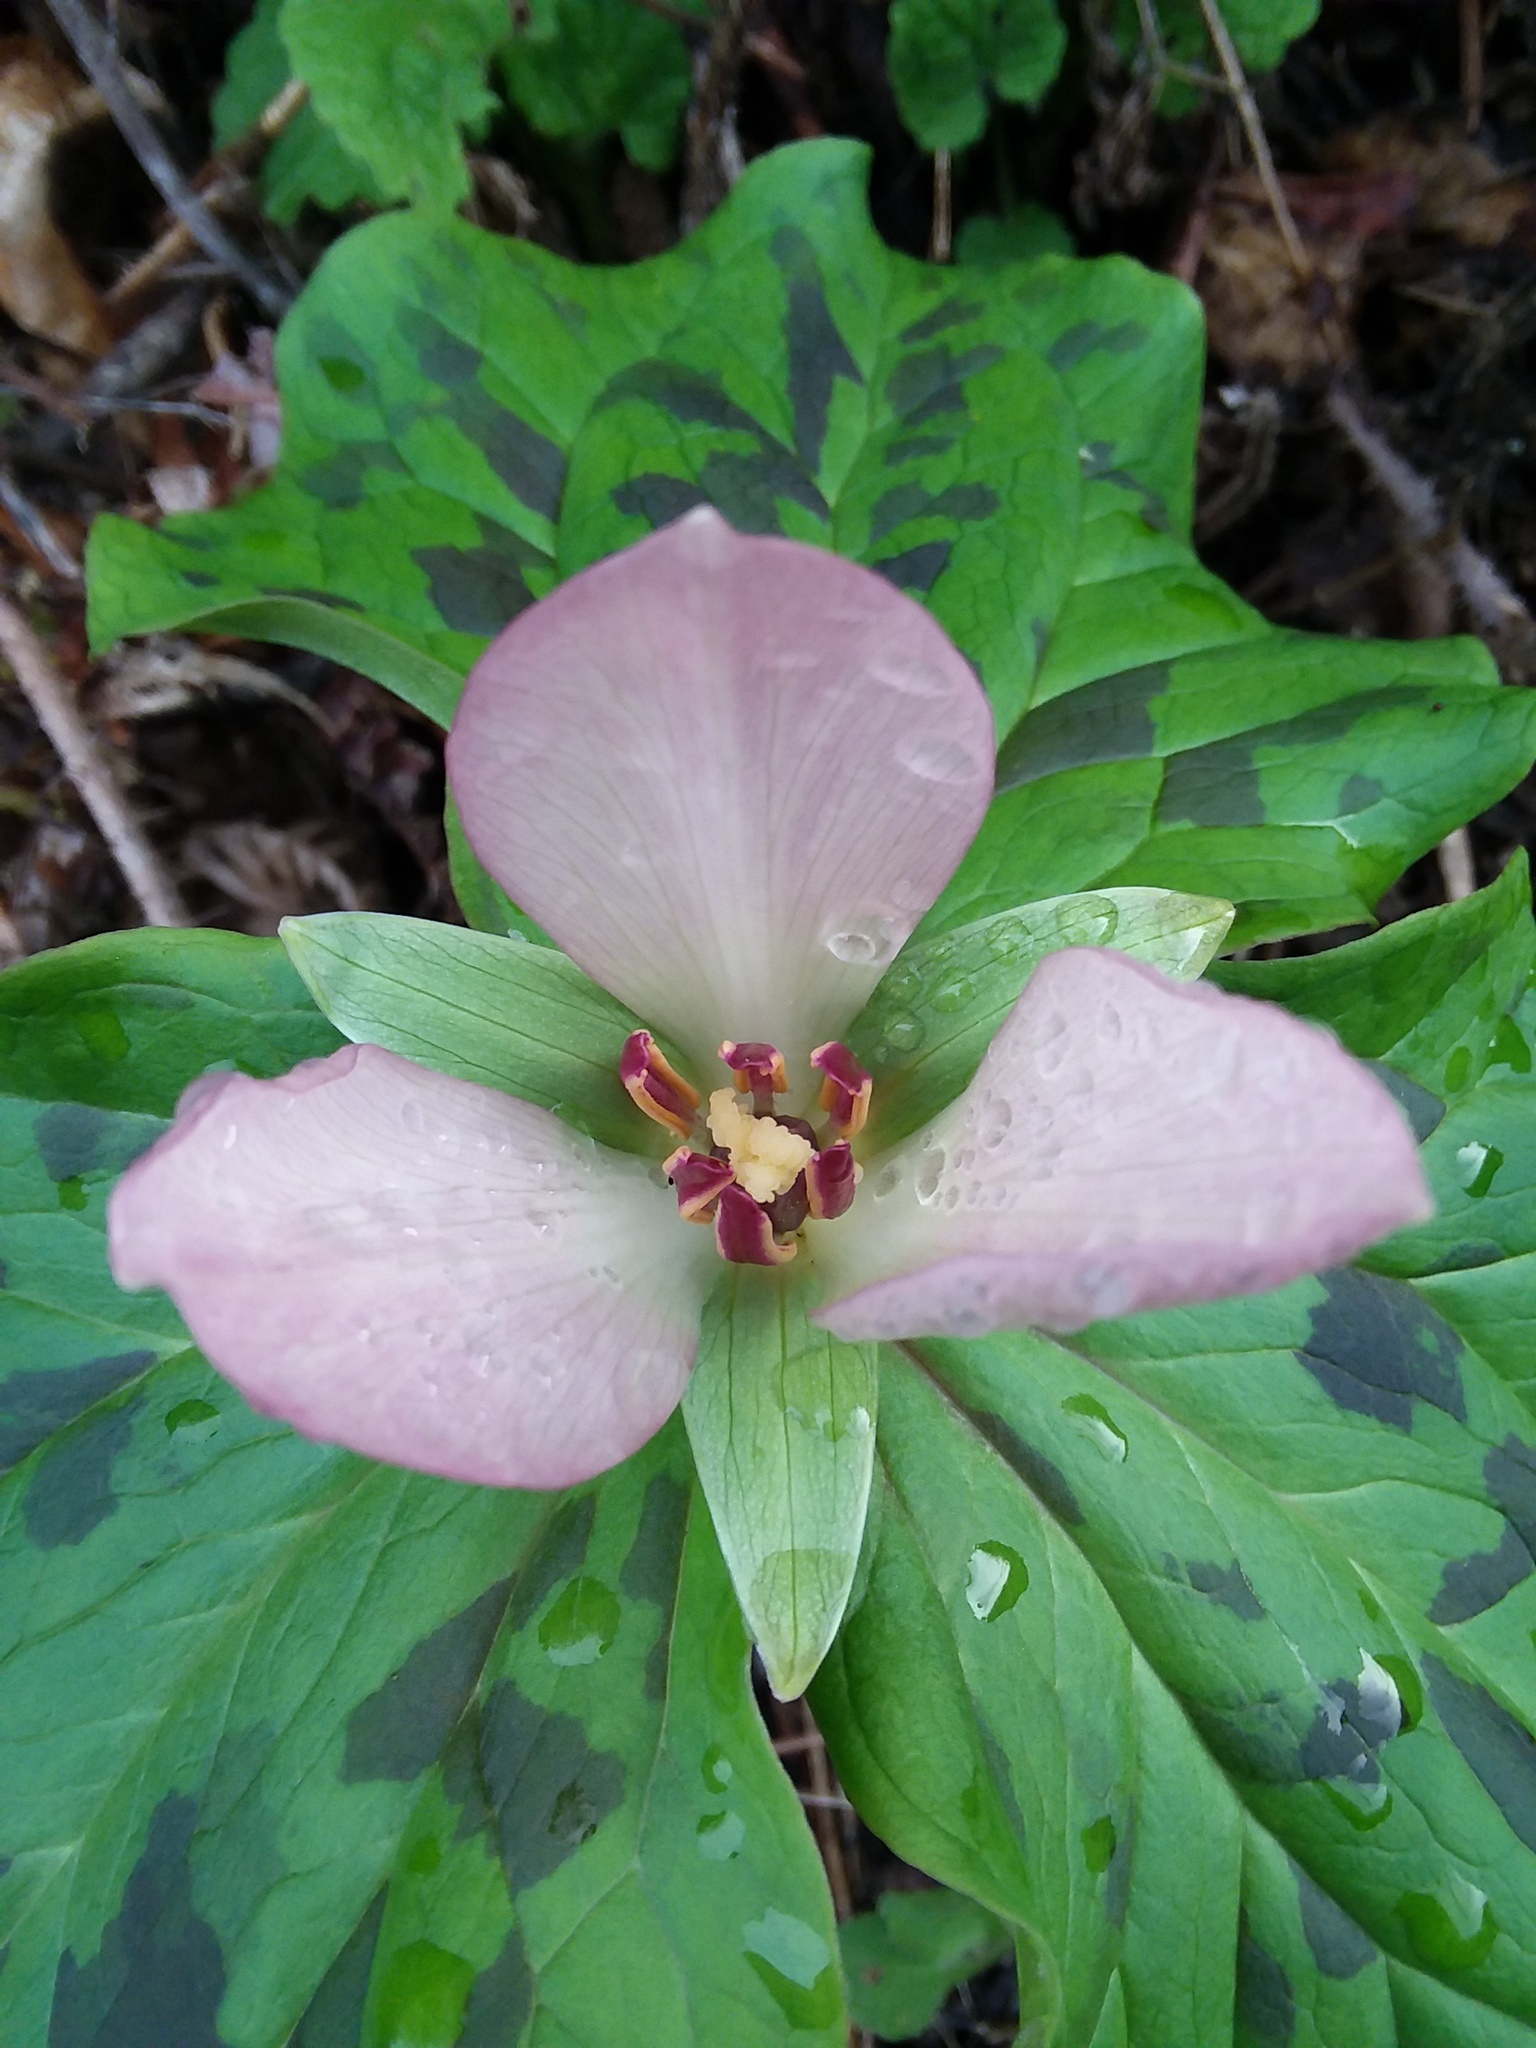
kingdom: Plantae
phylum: Tracheophyta
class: Liliopsida
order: Liliales
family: Melanthiaceae
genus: Trillium
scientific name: Trillium chloropetalum
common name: Giant trillium
